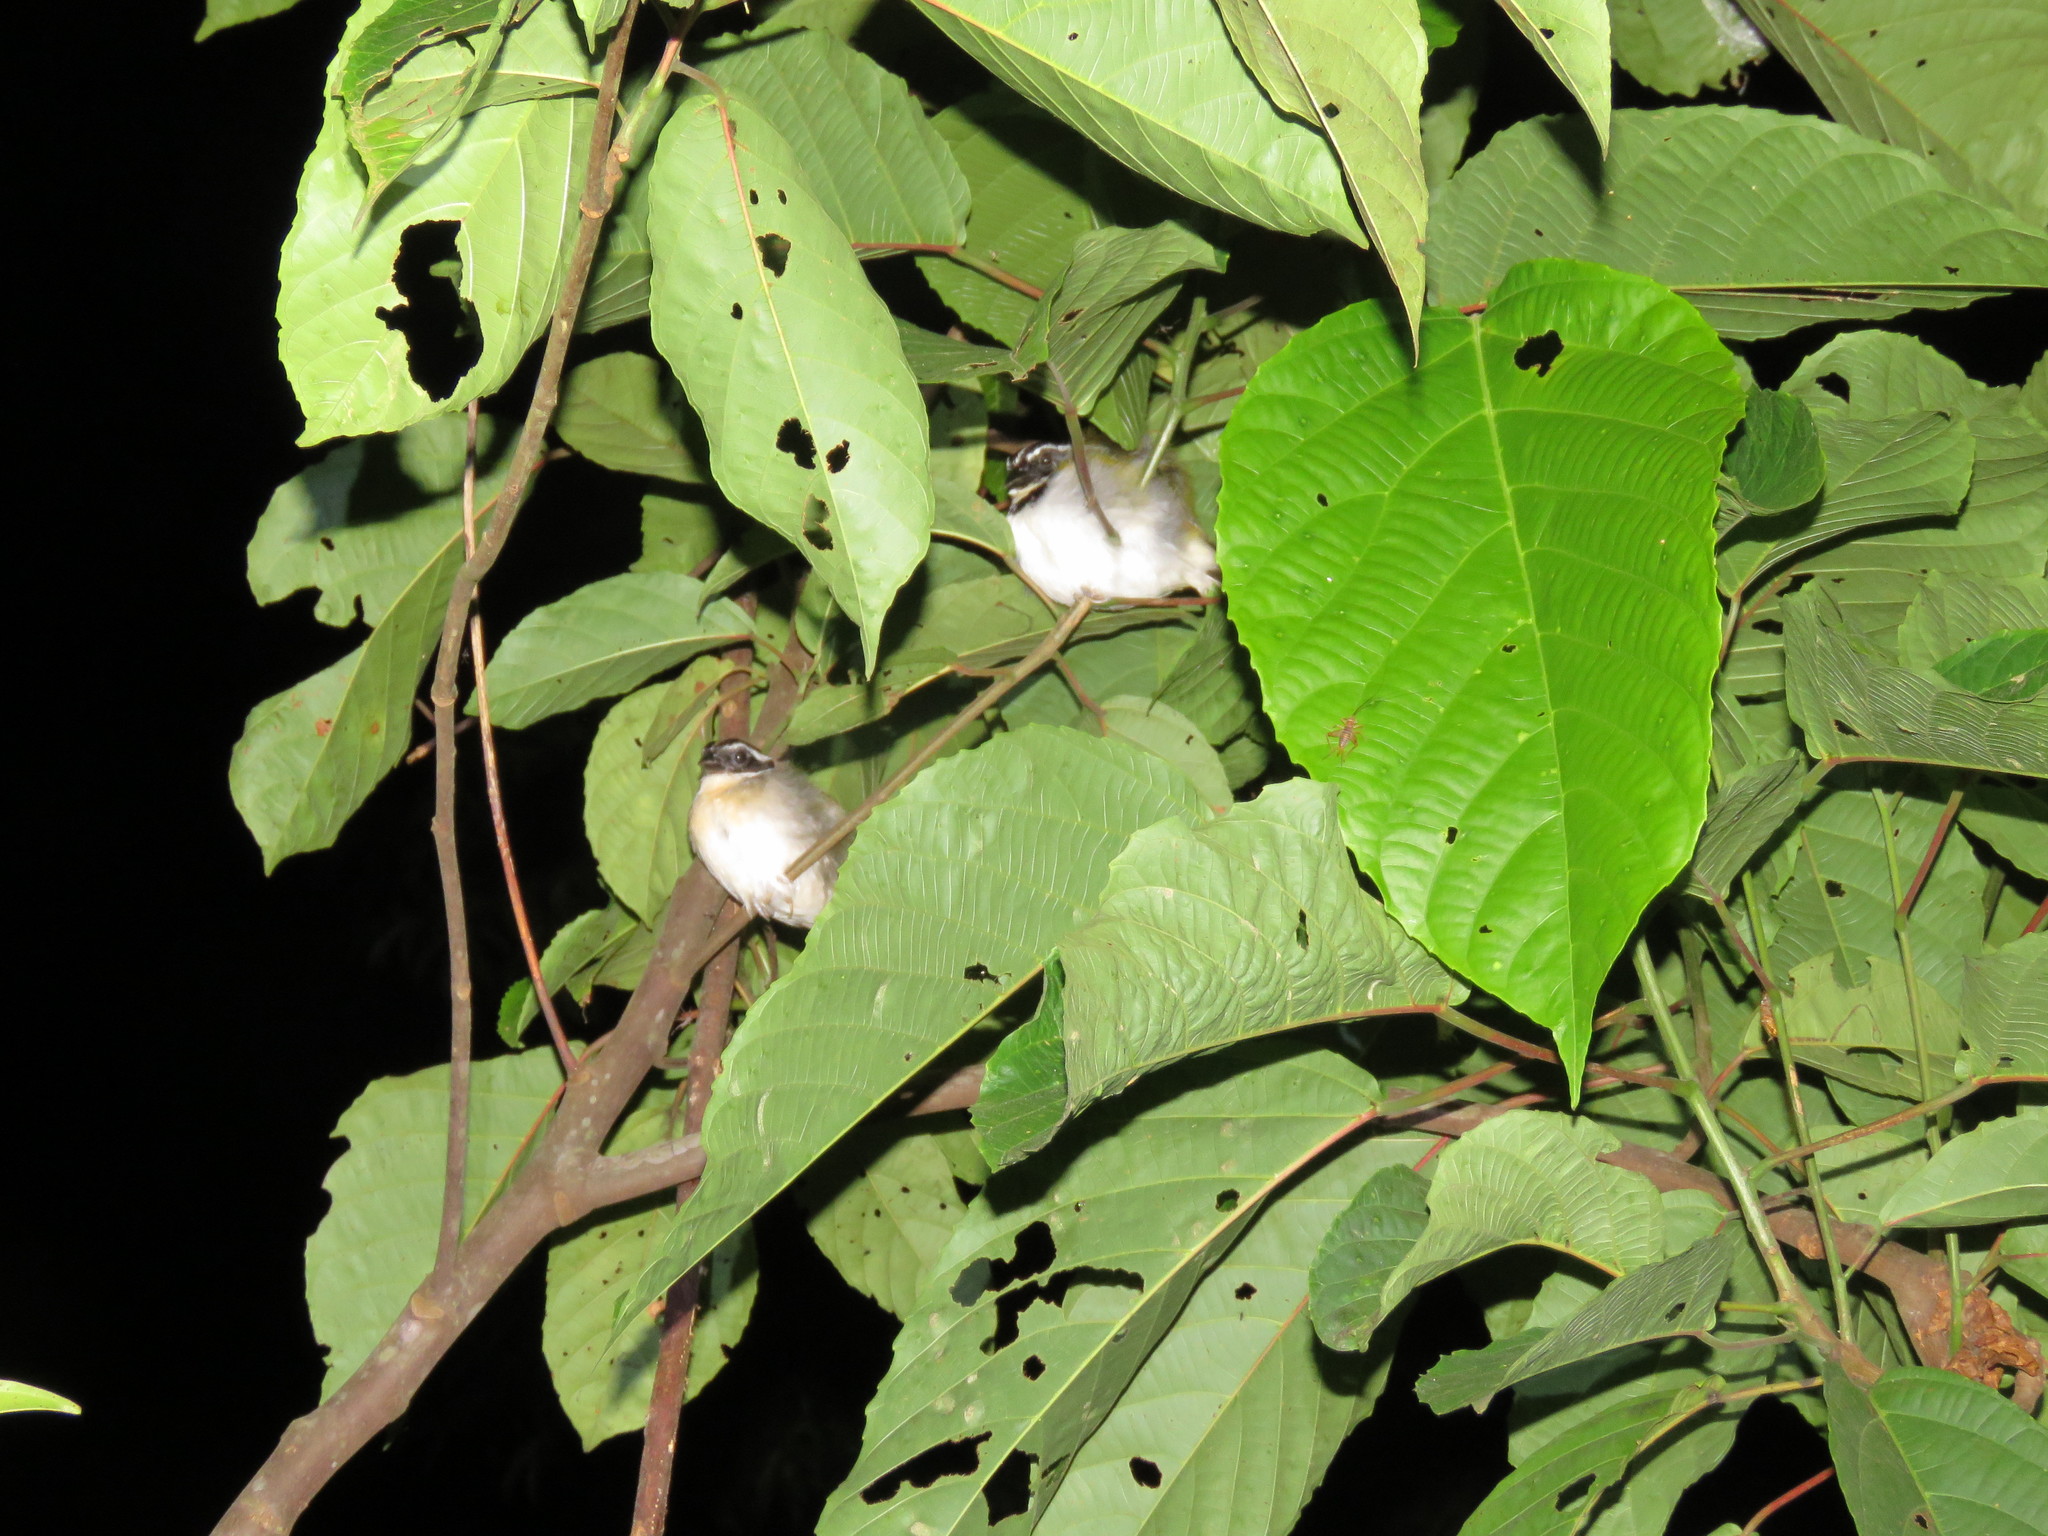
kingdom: Animalia
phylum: Chordata
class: Aves
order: Passeriformes
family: Passerellidae
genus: Arremon
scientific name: Arremon taciturnus
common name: Pectoral sparrow
